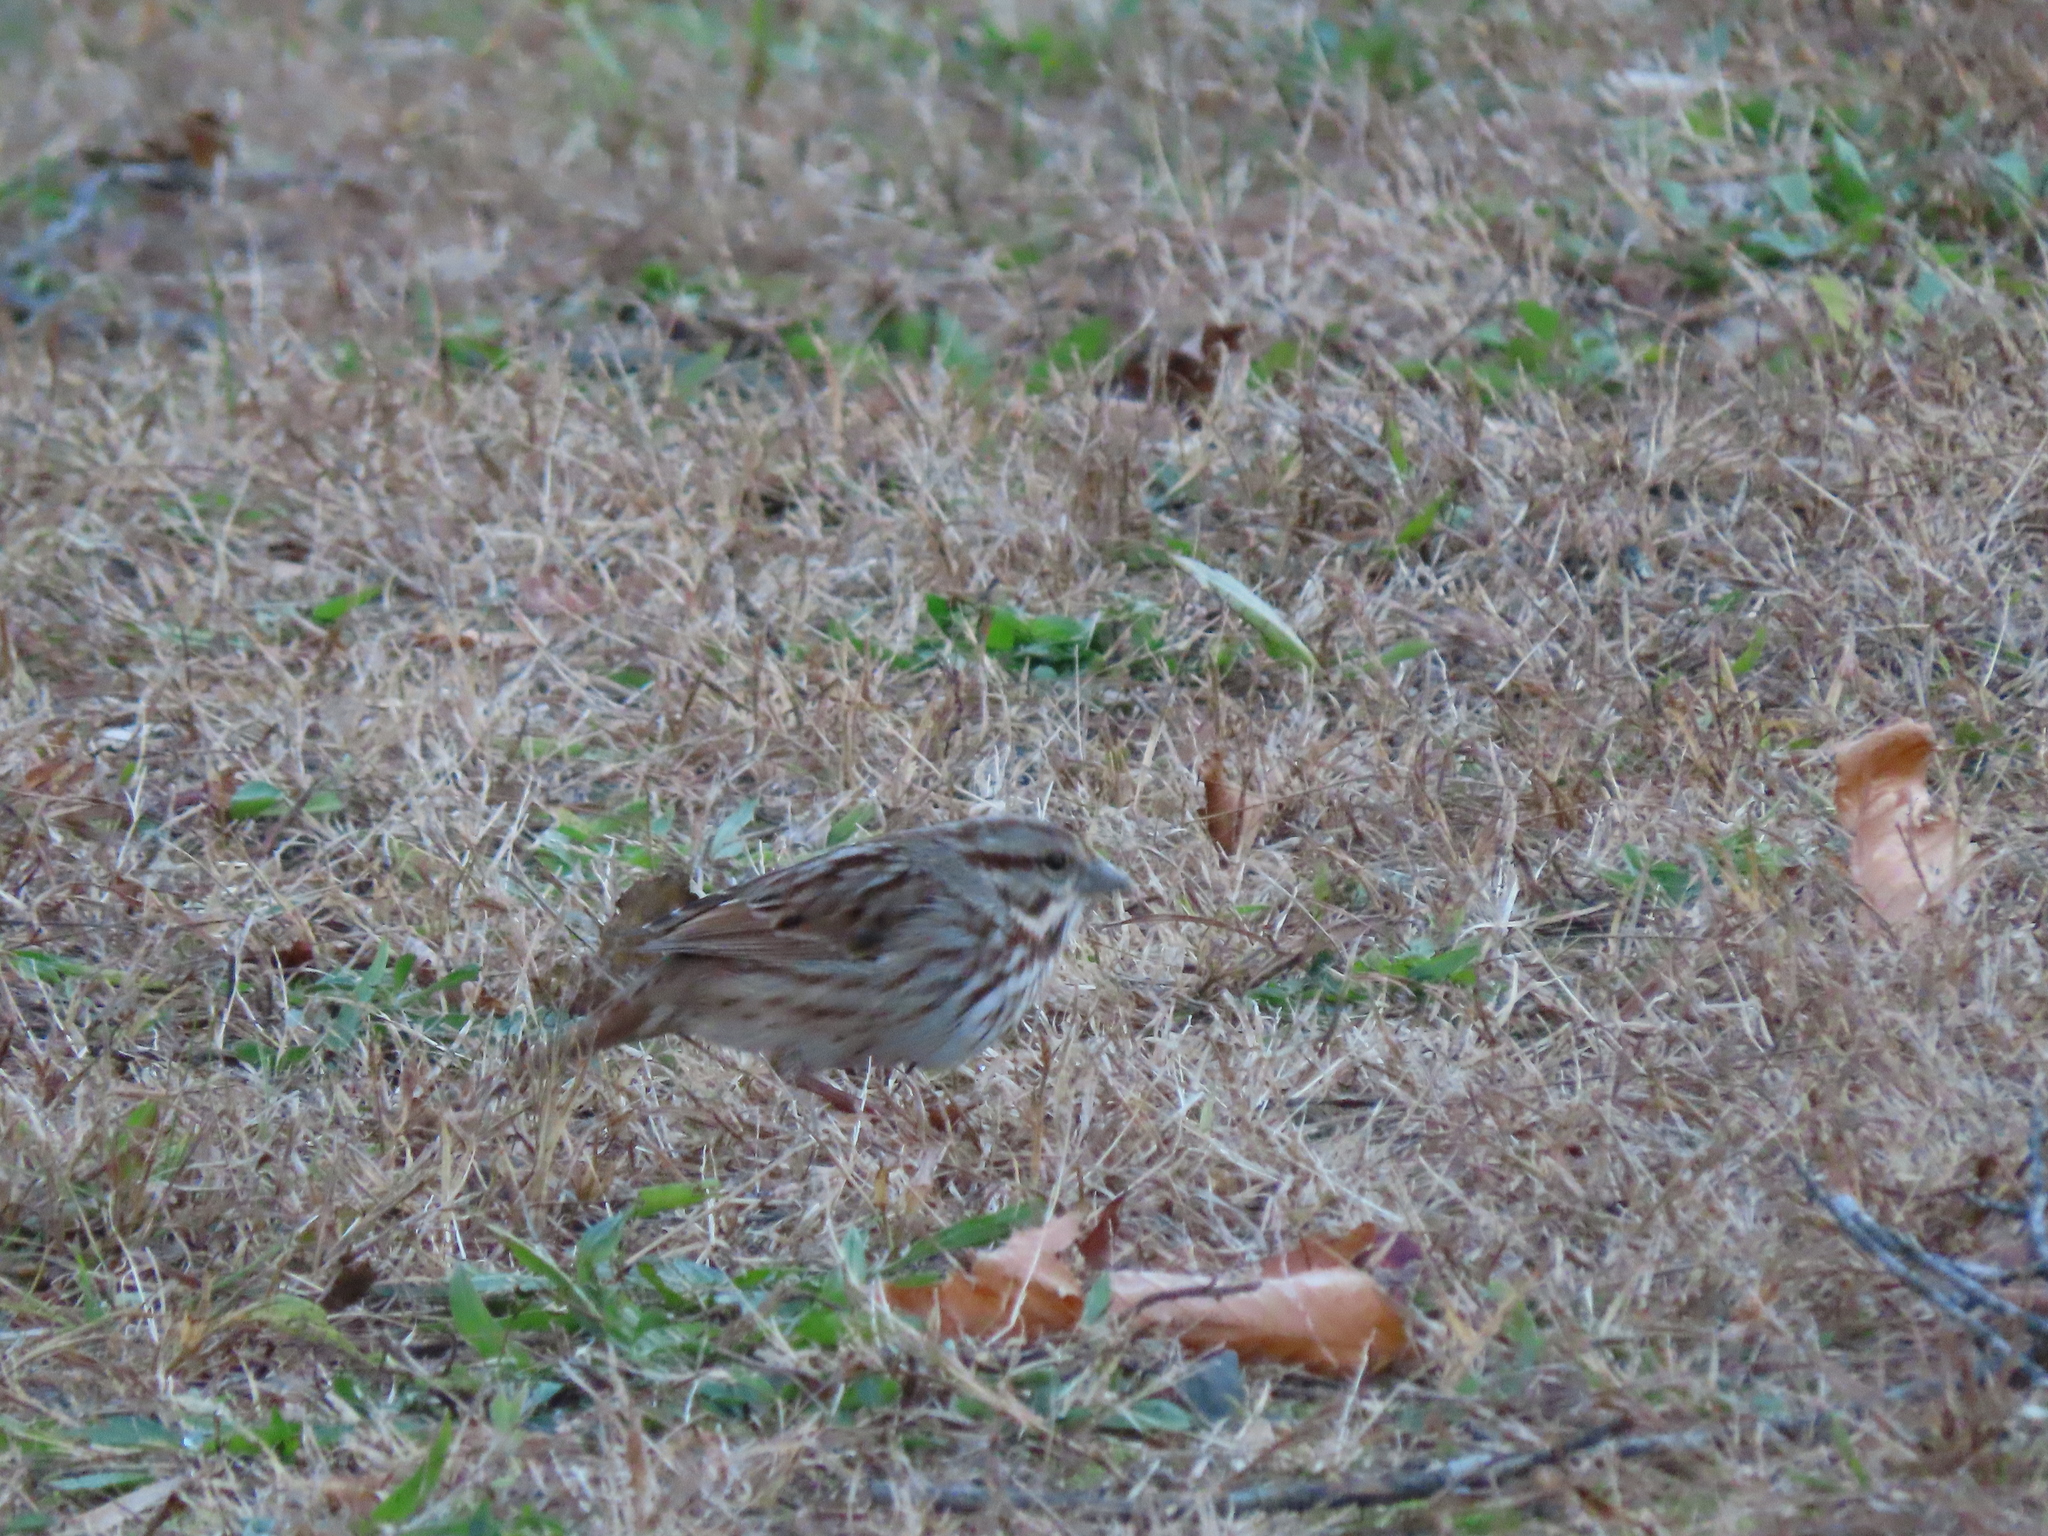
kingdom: Animalia
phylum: Chordata
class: Aves
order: Passeriformes
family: Passerellidae
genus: Melospiza
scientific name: Melospiza melodia
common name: Song sparrow
